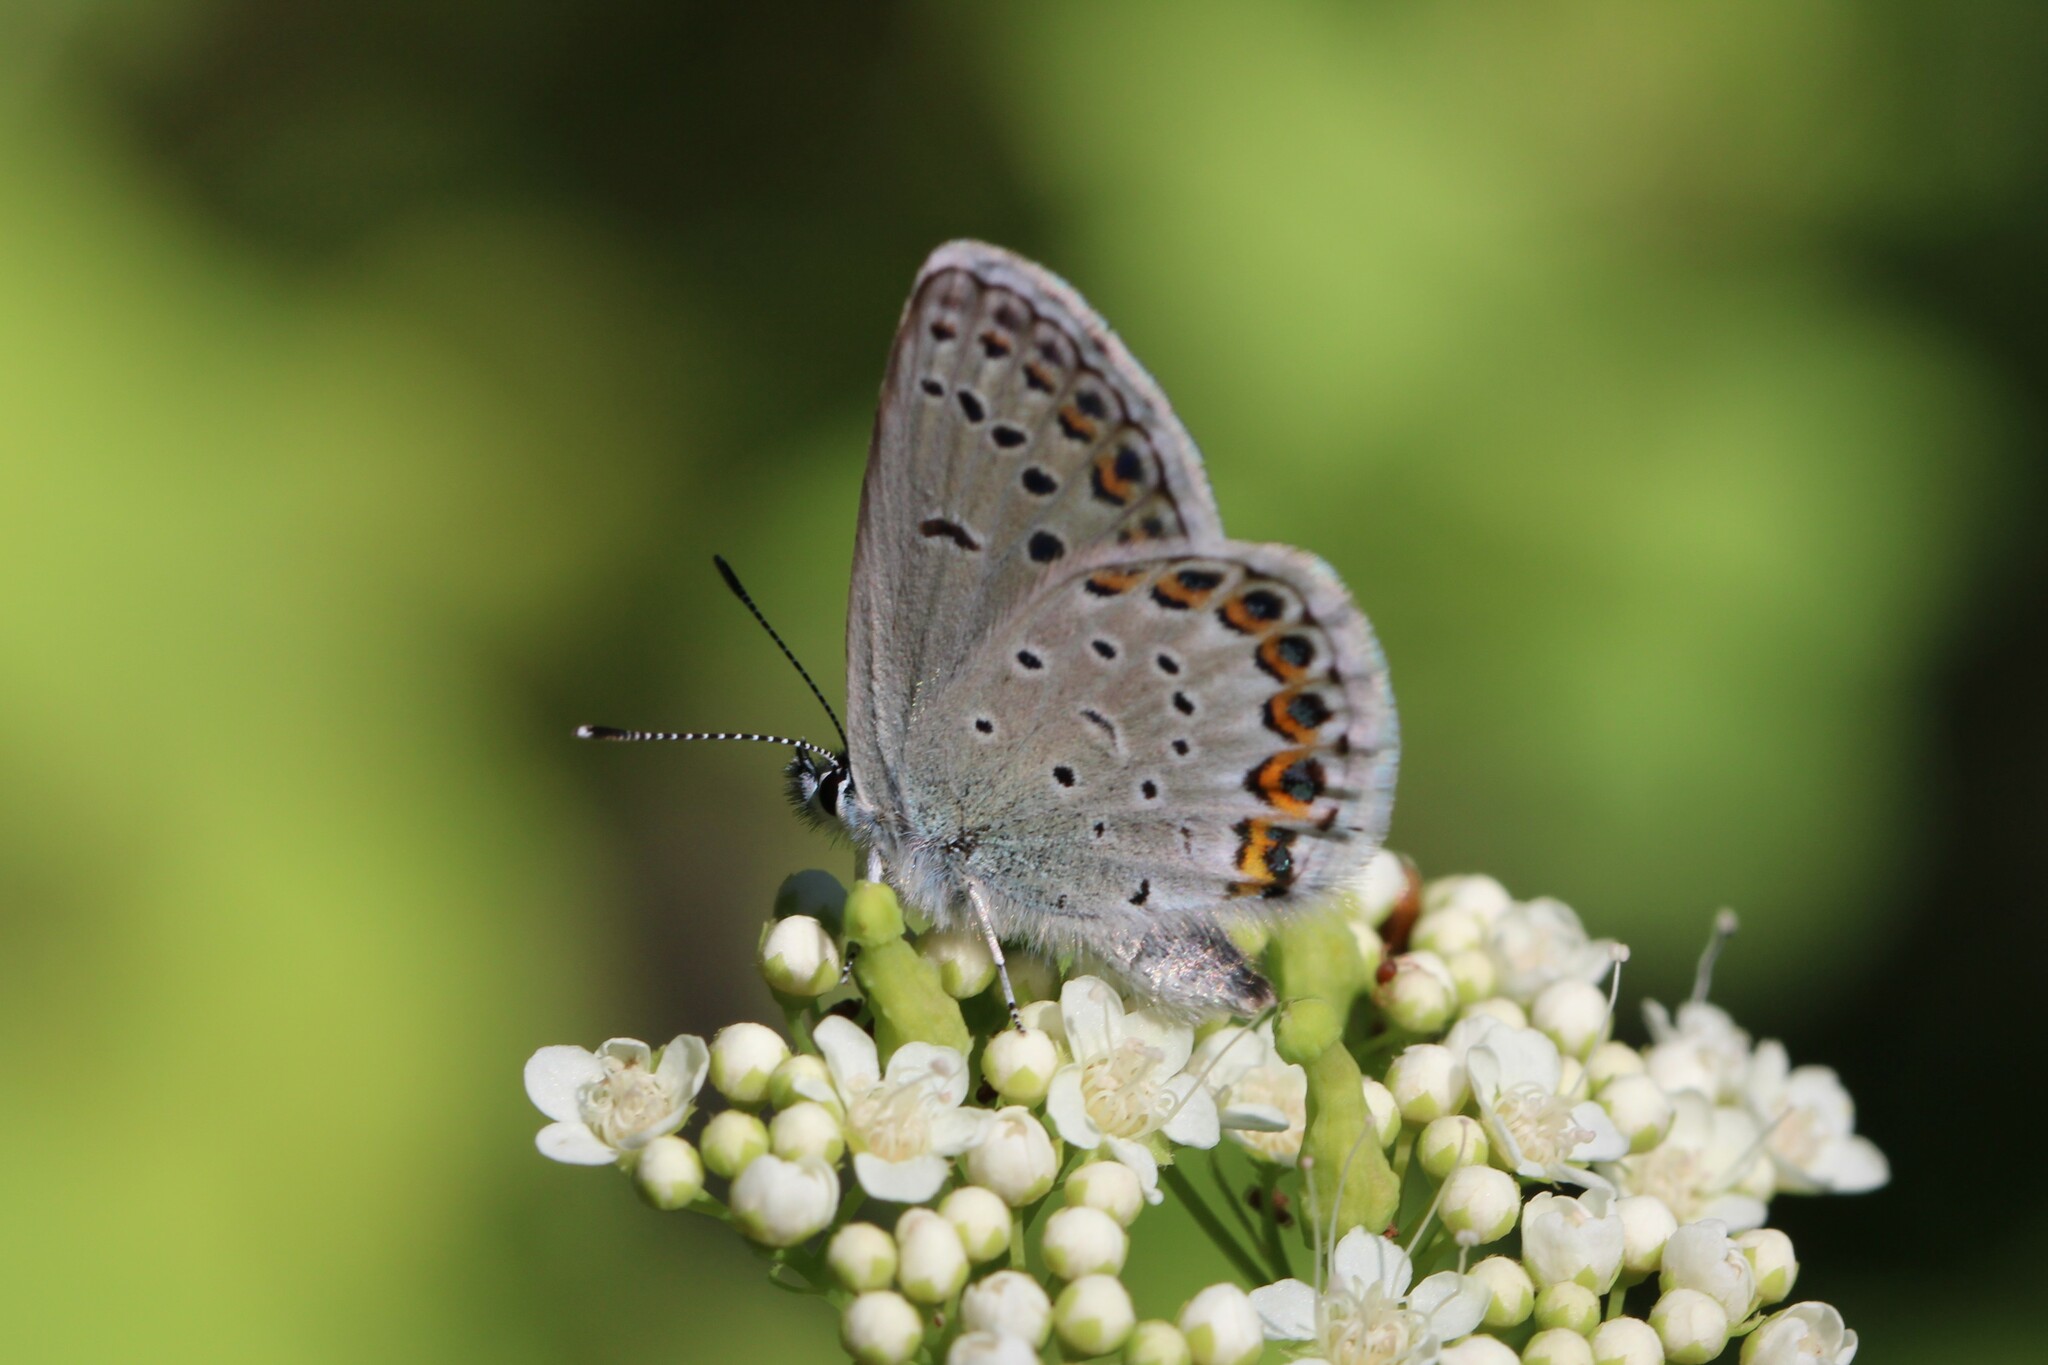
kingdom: Animalia
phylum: Arthropoda
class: Insecta
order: Lepidoptera
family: Lycaenidae
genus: Lycaeides
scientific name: Lycaeides idas
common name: Northern blue
